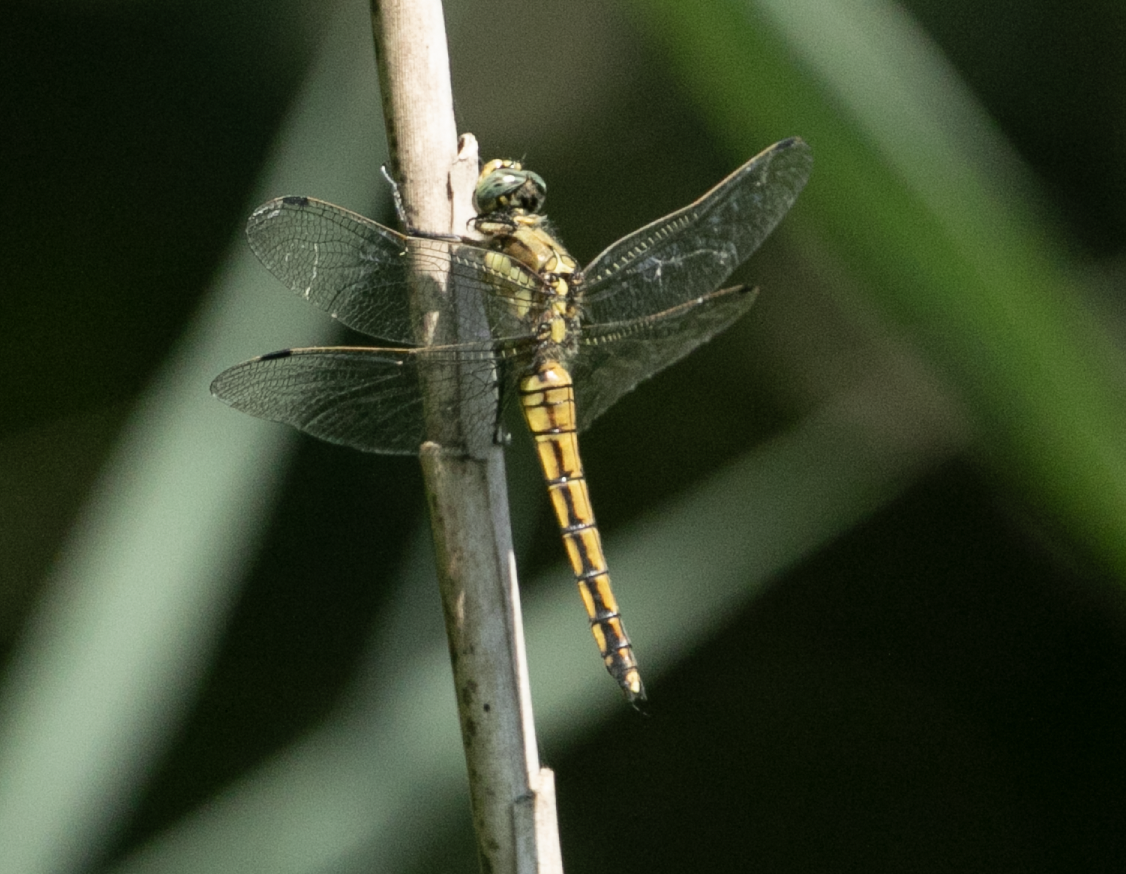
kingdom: Animalia
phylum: Arthropoda
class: Insecta
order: Odonata
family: Libellulidae
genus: Orthetrum
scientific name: Orthetrum cancellatum
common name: Black-tailed skimmer
